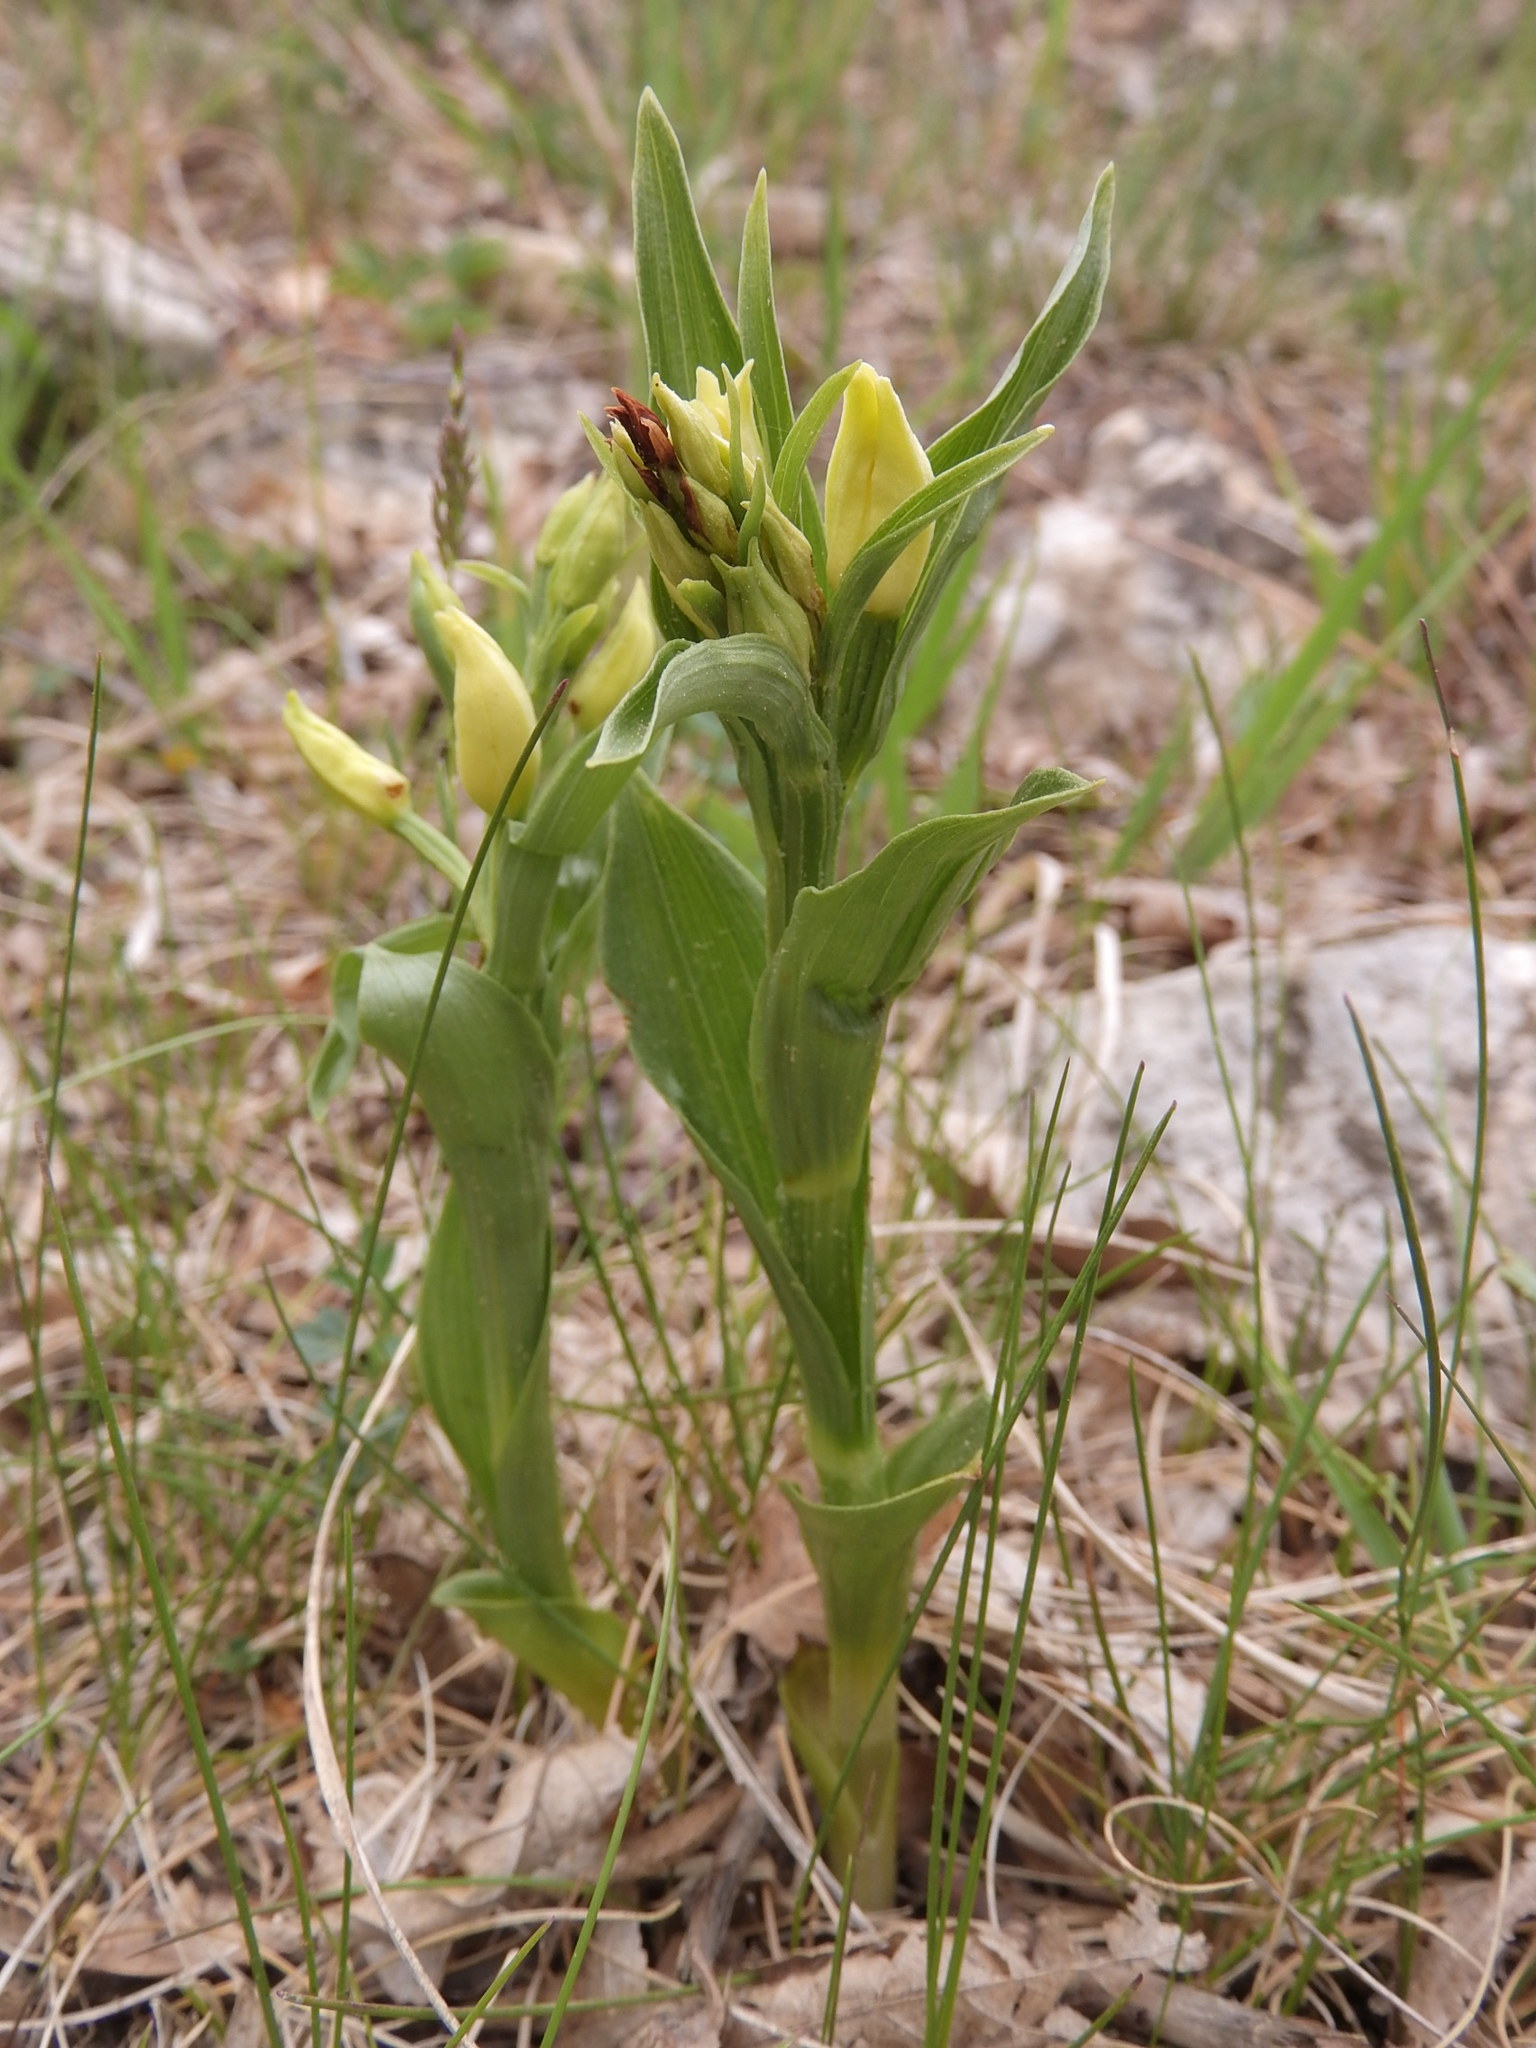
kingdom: Plantae
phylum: Tracheophyta
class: Liliopsida
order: Asparagales
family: Orchidaceae
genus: Cephalanthera
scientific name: Cephalanthera damasonium
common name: White helleborine
